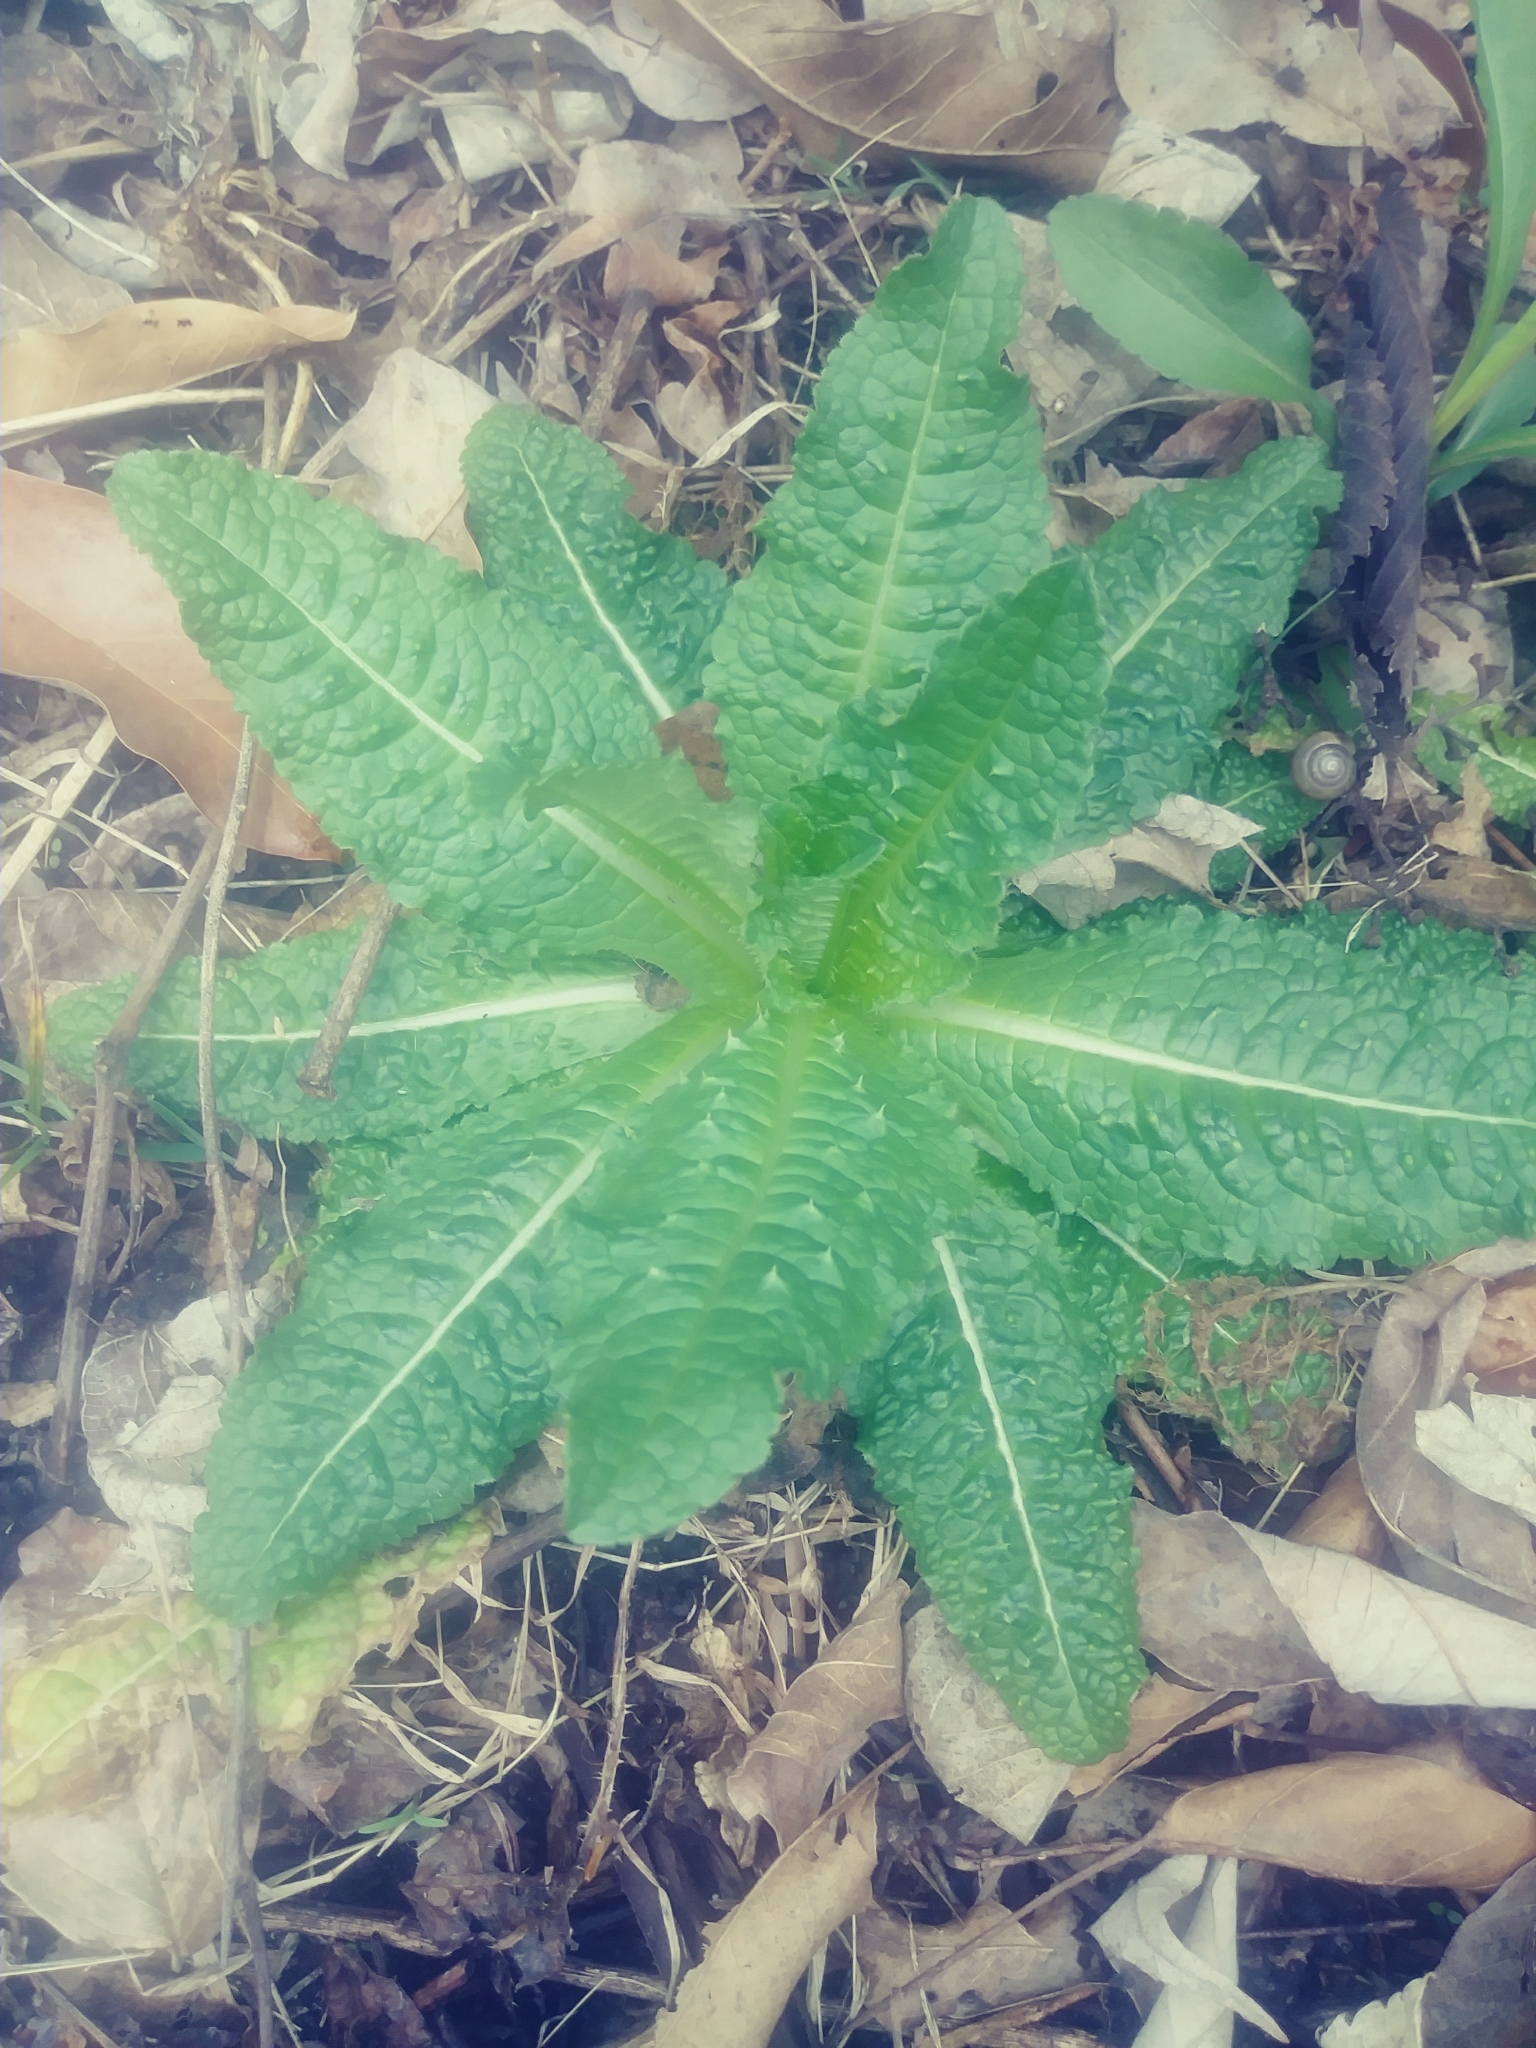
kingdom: Plantae
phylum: Tracheophyta
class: Magnoliopsida
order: Dipsacales
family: Caprifoliaceae
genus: Dipsacus
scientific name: Dipsacus fullonum
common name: Teasel
